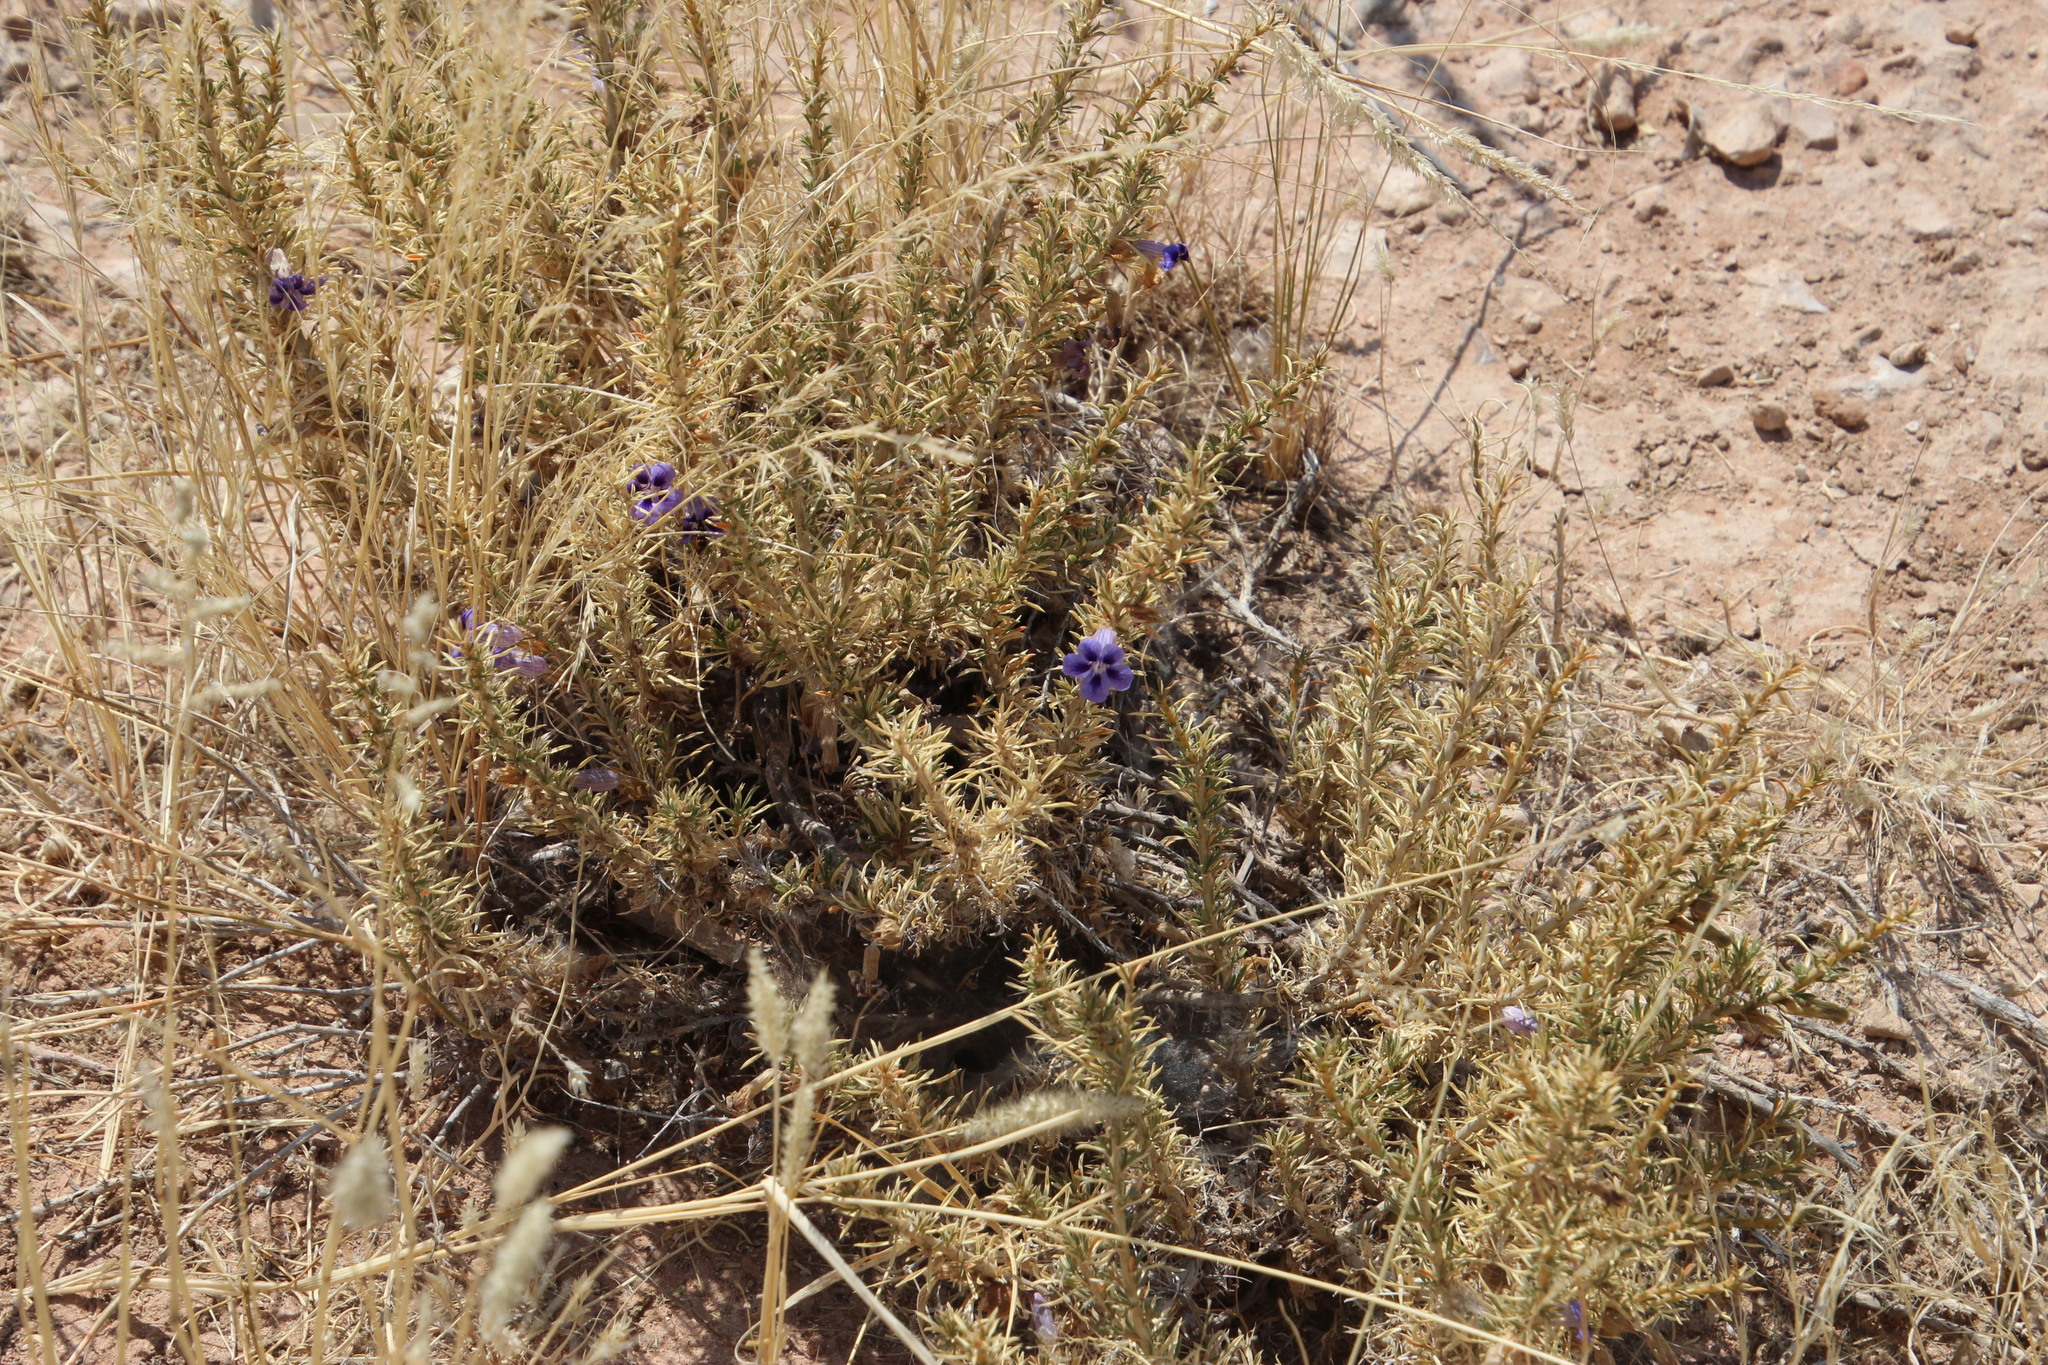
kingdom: Plantae
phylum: Tracheophyta
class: Magnoliopsida
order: Lamiales
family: Scrophulariaceae
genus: Aptosimum
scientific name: Aptosimum spinescens
